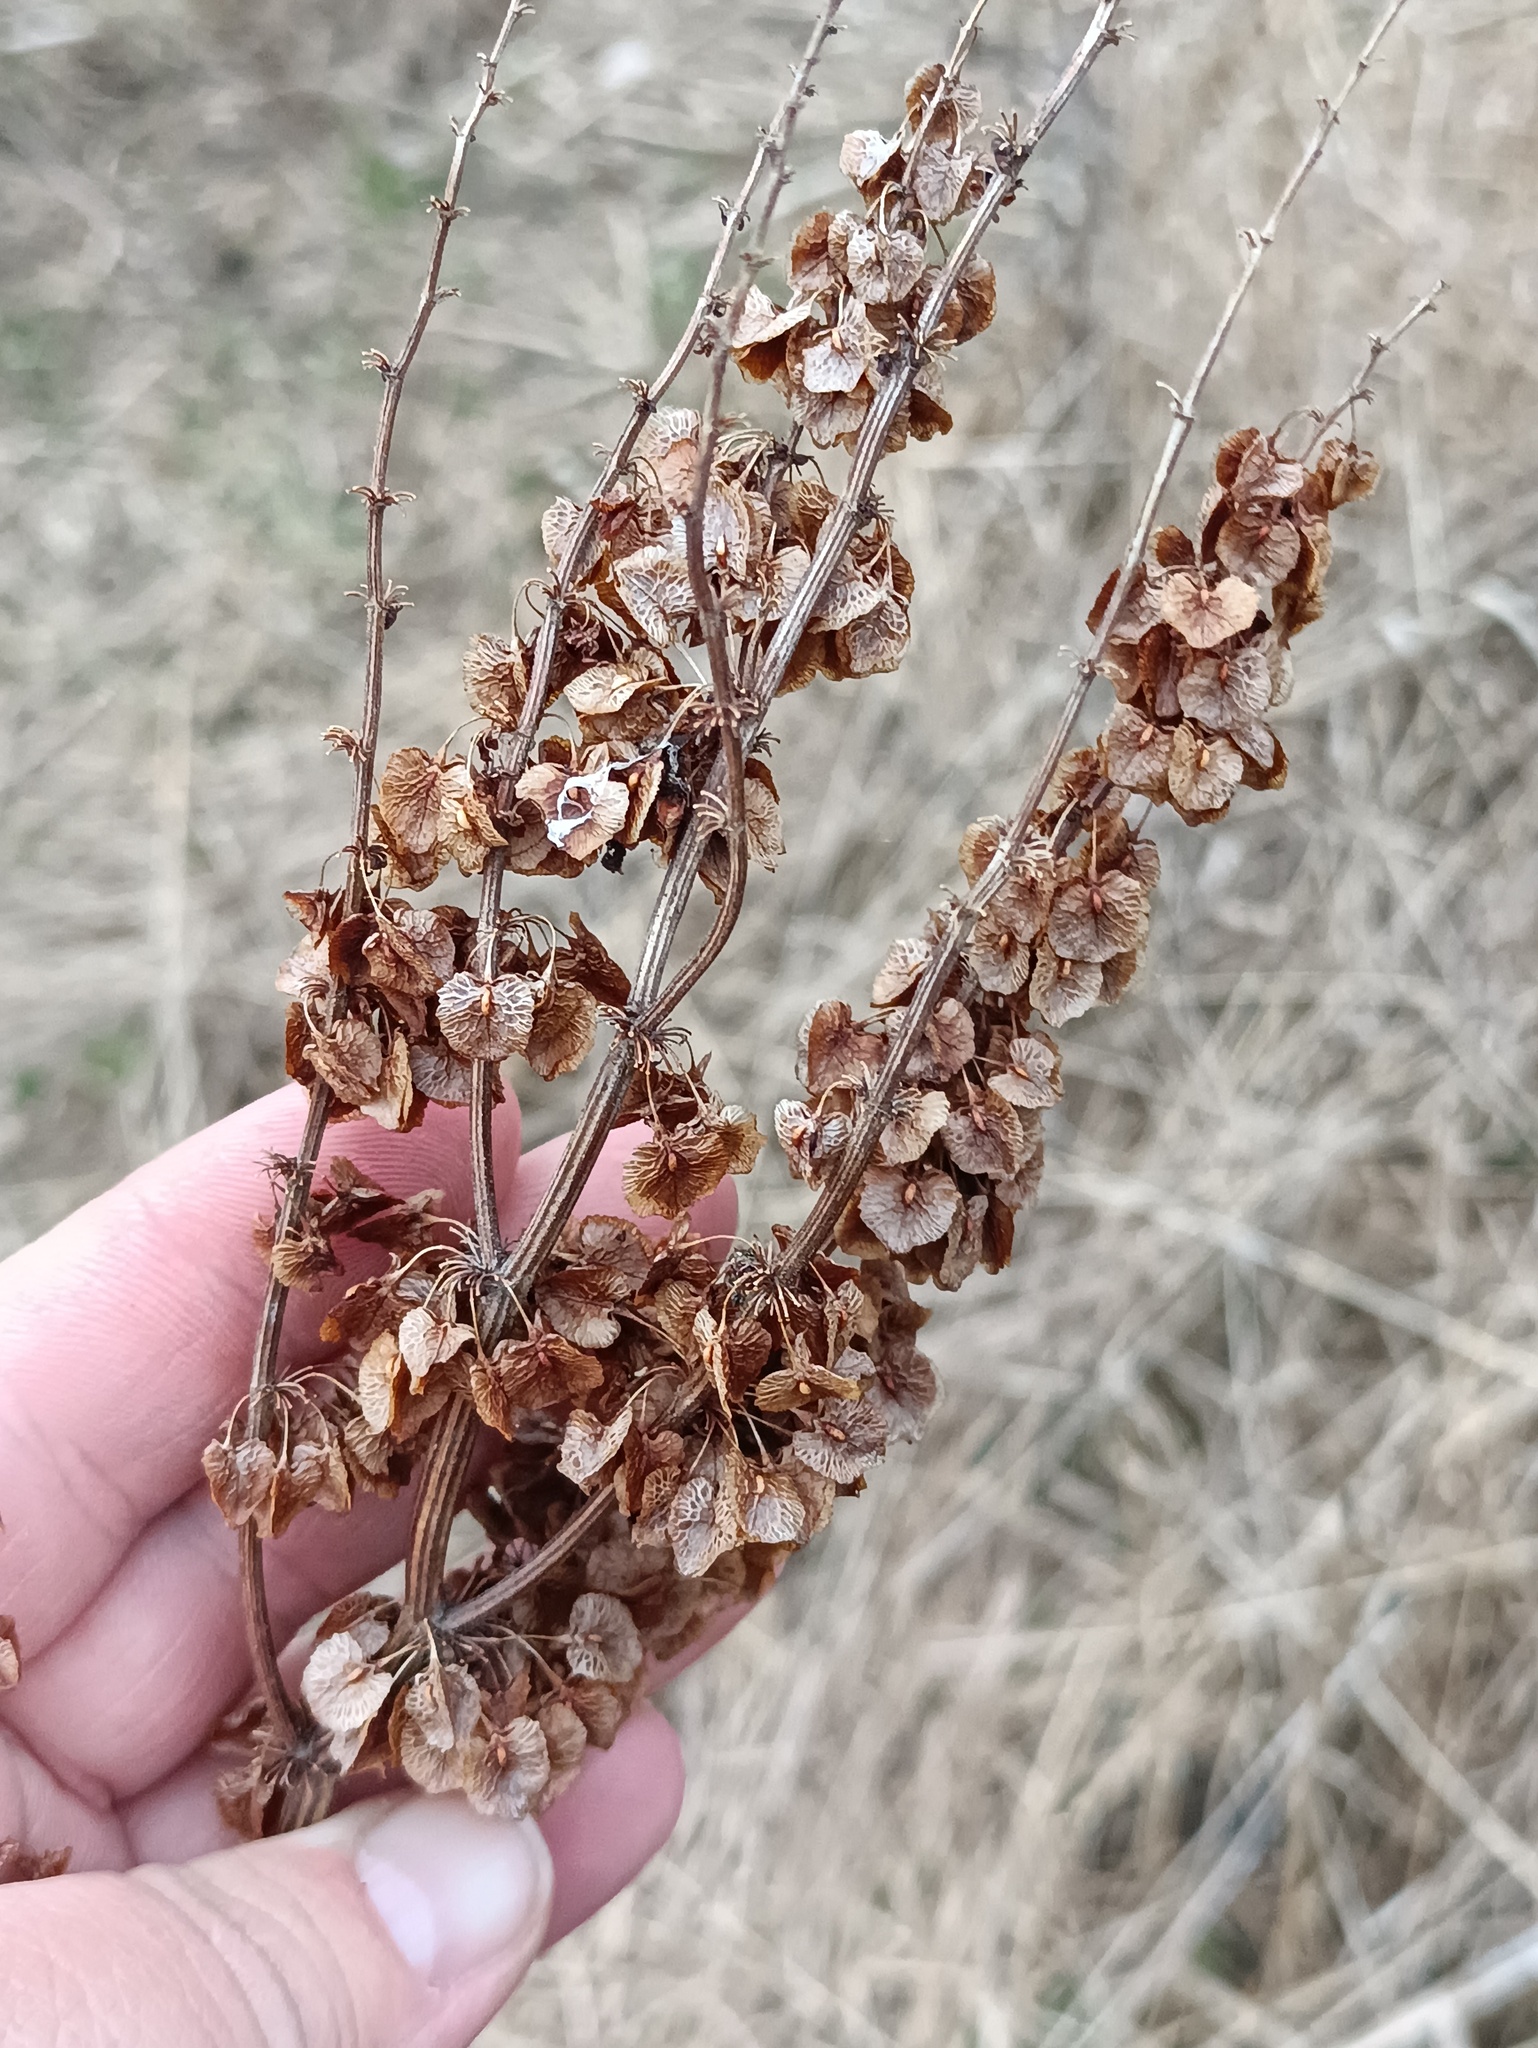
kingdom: Plantae
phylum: Tracheophyta
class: Magnoliopsida
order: Caryophyllales
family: Polygonaceae
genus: Rumex
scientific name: Rumex confertus
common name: Russian dock
